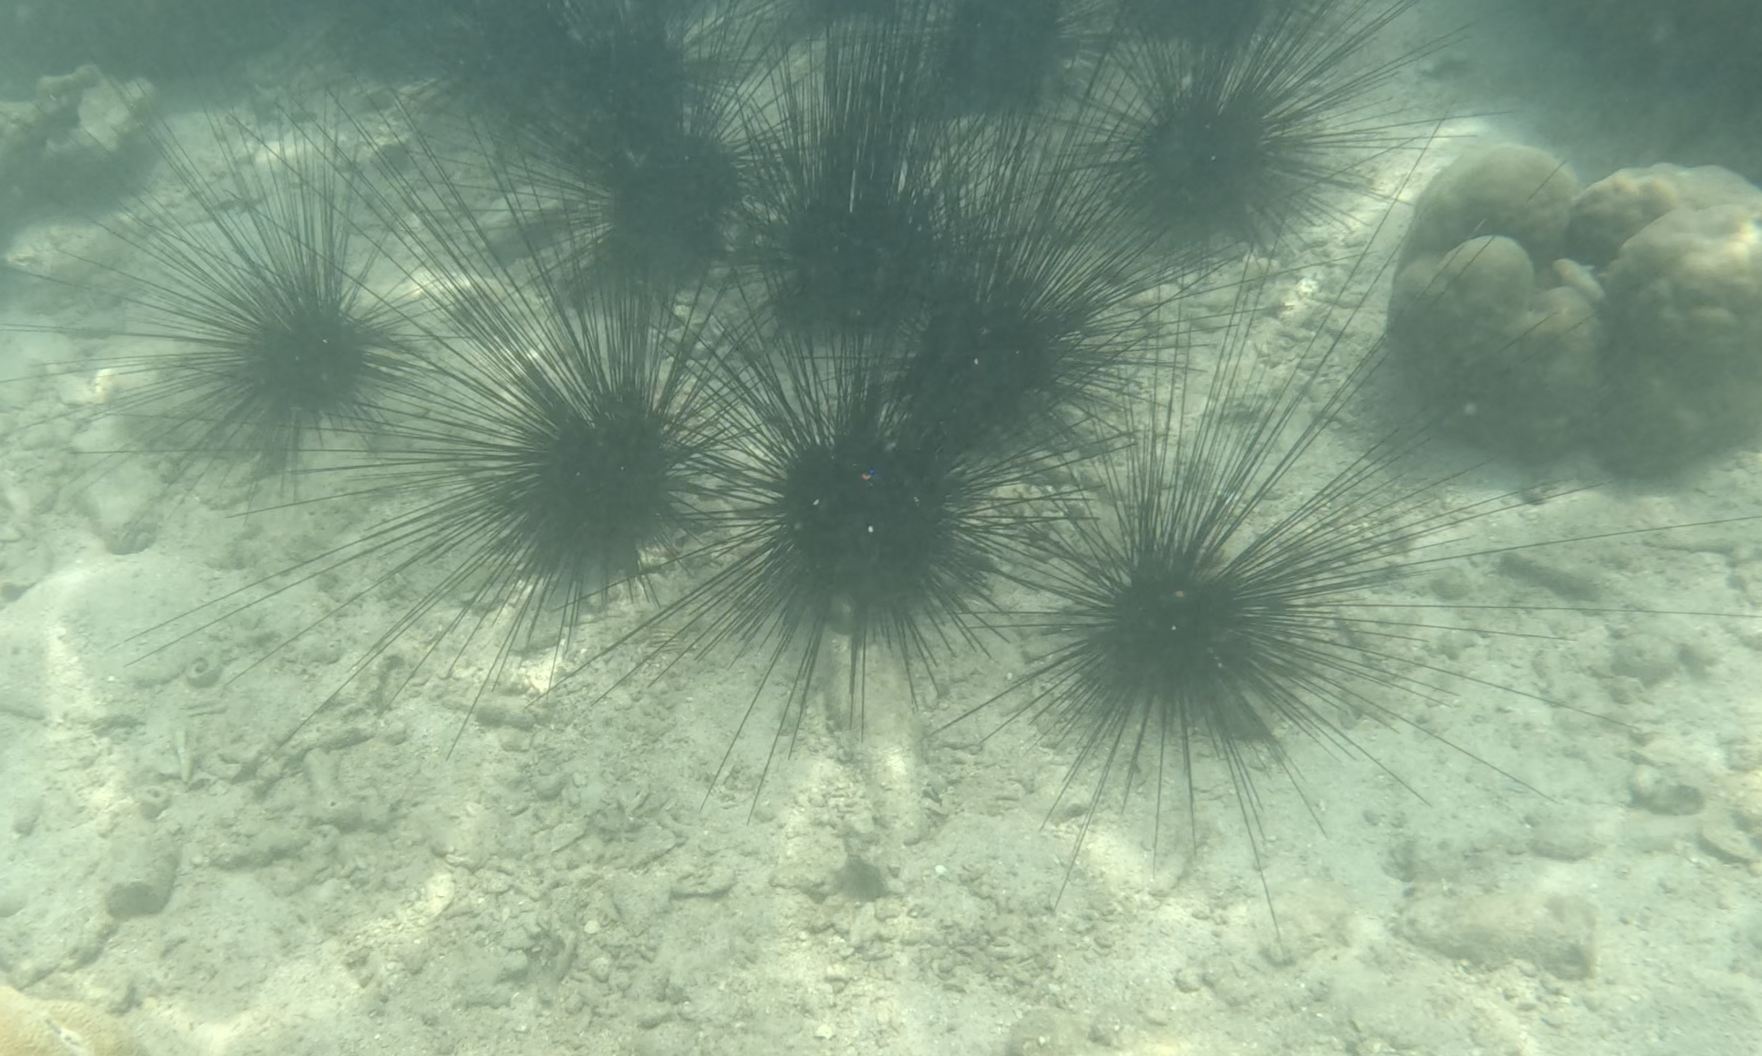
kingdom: Animalia
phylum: Echinodermata
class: Echinoidea
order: Diadematoida
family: Diadematidae
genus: Diadema
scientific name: Diadema setosum
